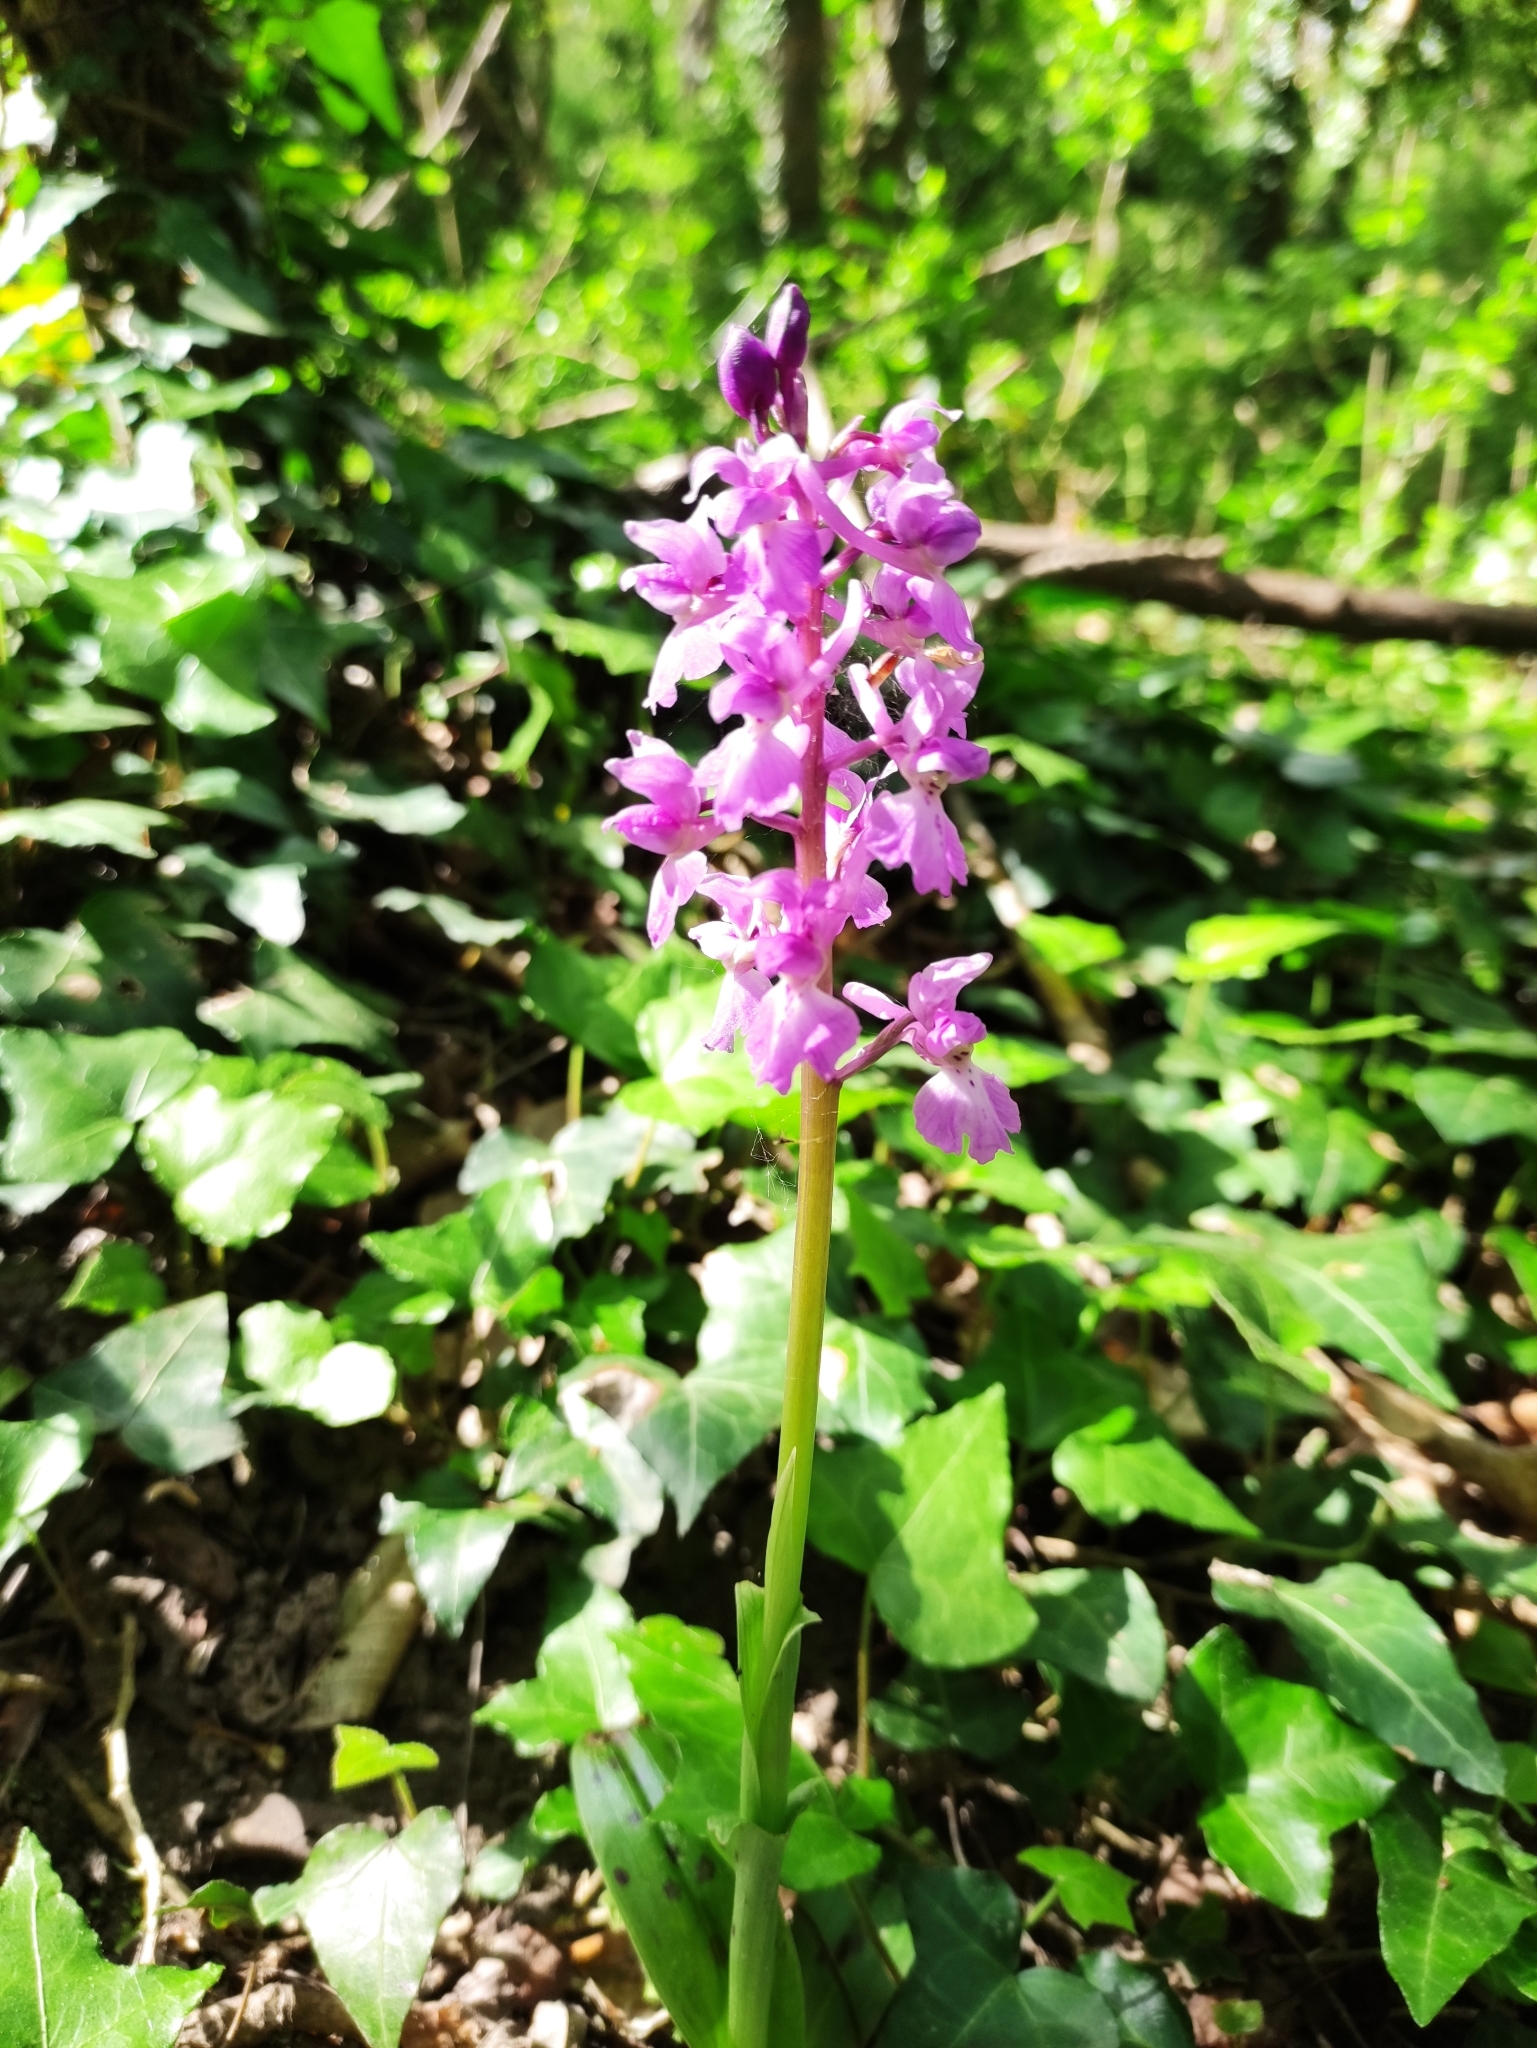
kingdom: Plantae
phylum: Tracheophyta
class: Liliopsida
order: Asparagales
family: Orchidaceae
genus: Orchis
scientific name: Orchis mascula
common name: Early-purple orchid
